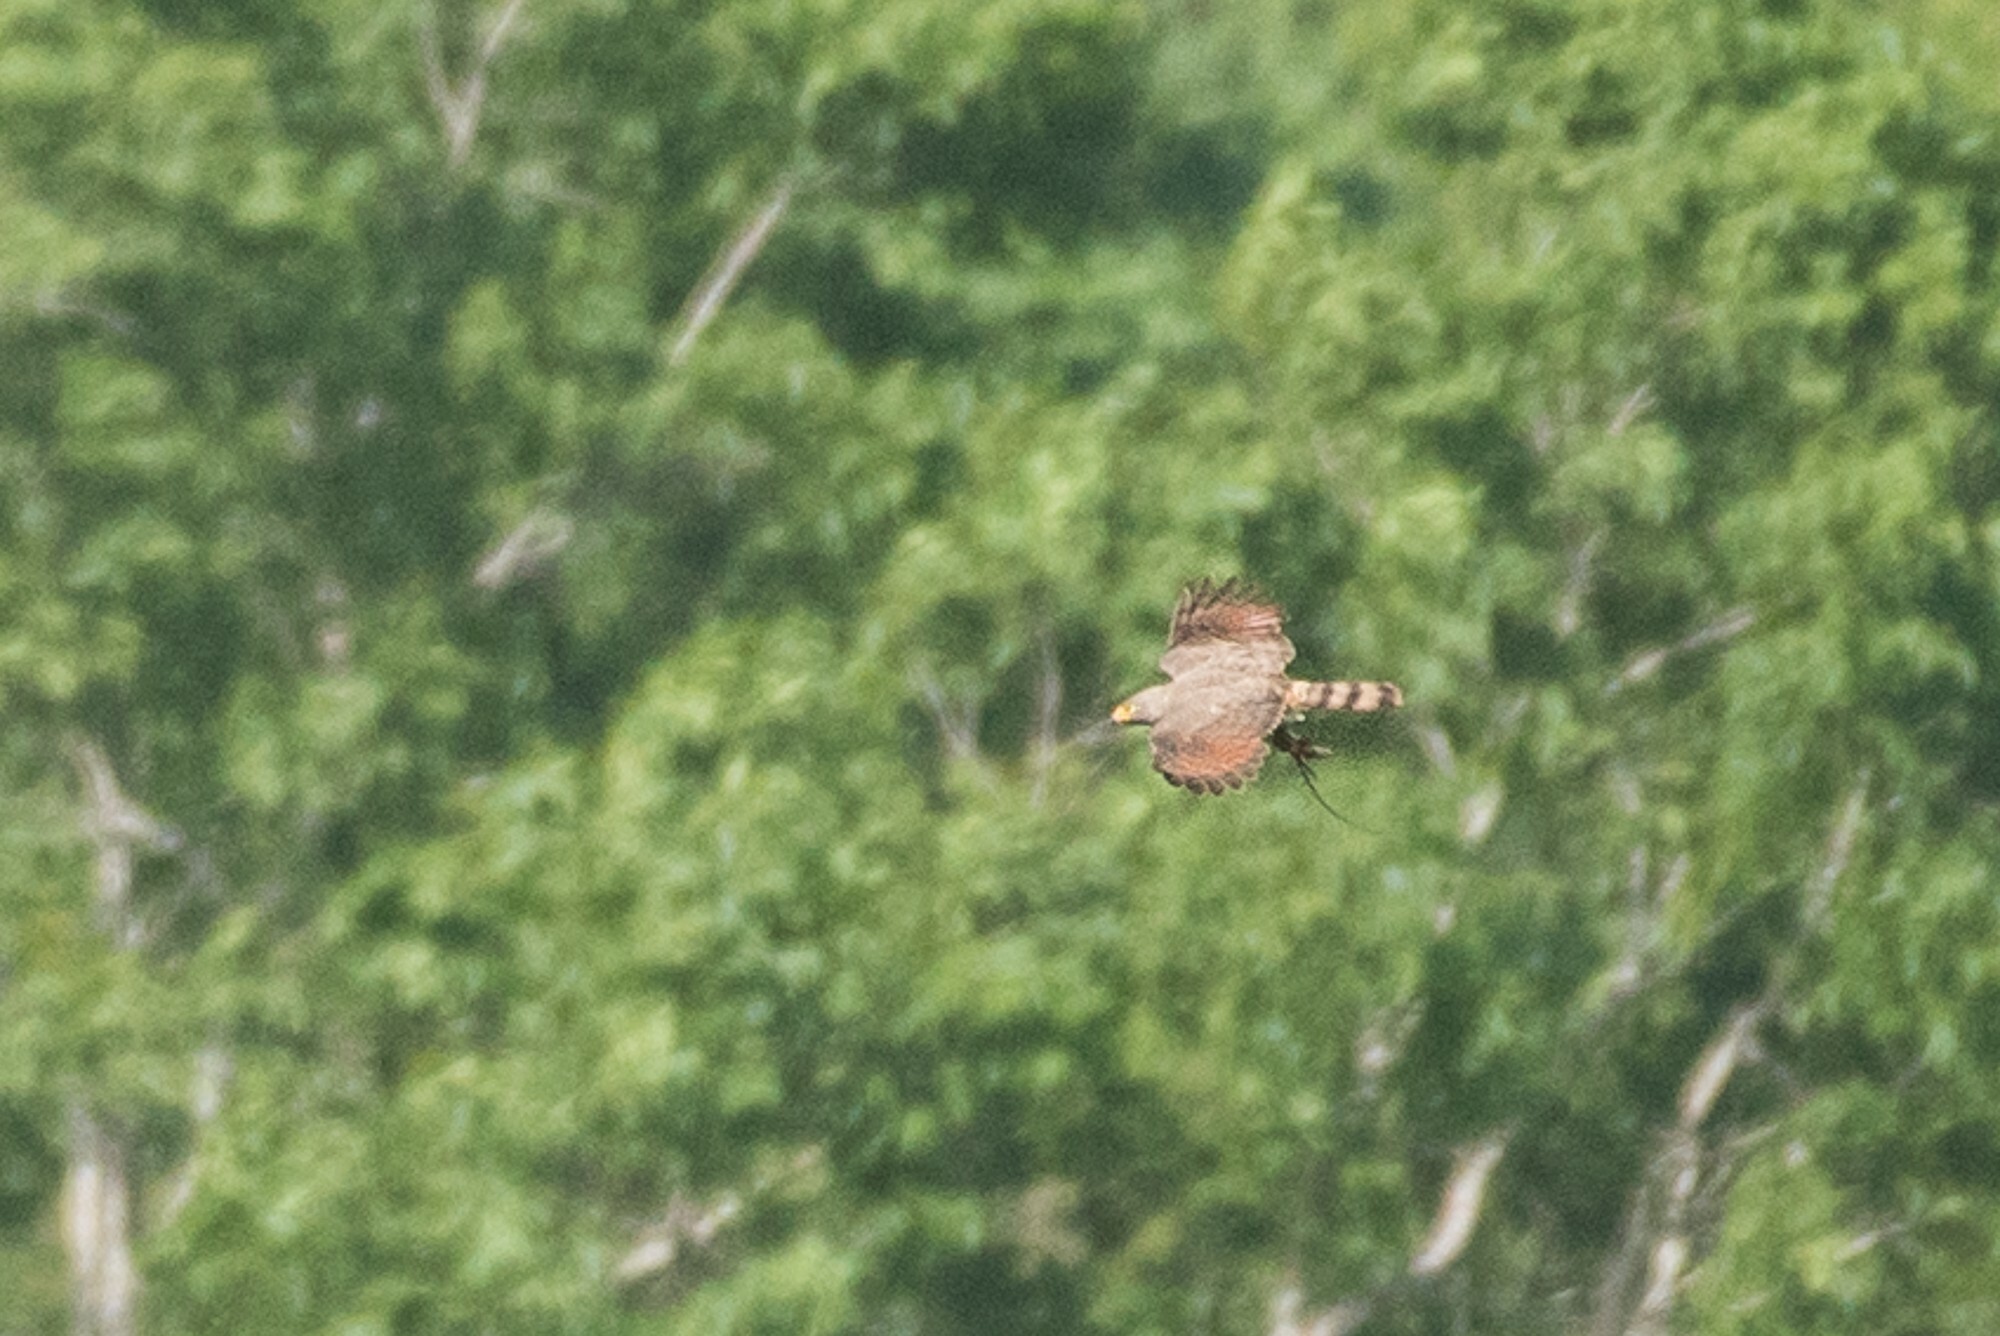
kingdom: Animalia
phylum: Chordata
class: Aves
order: Accipitriformes
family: Accipitridae
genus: Rupornis
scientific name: Rupornis magnirostris
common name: Roadside hawk
